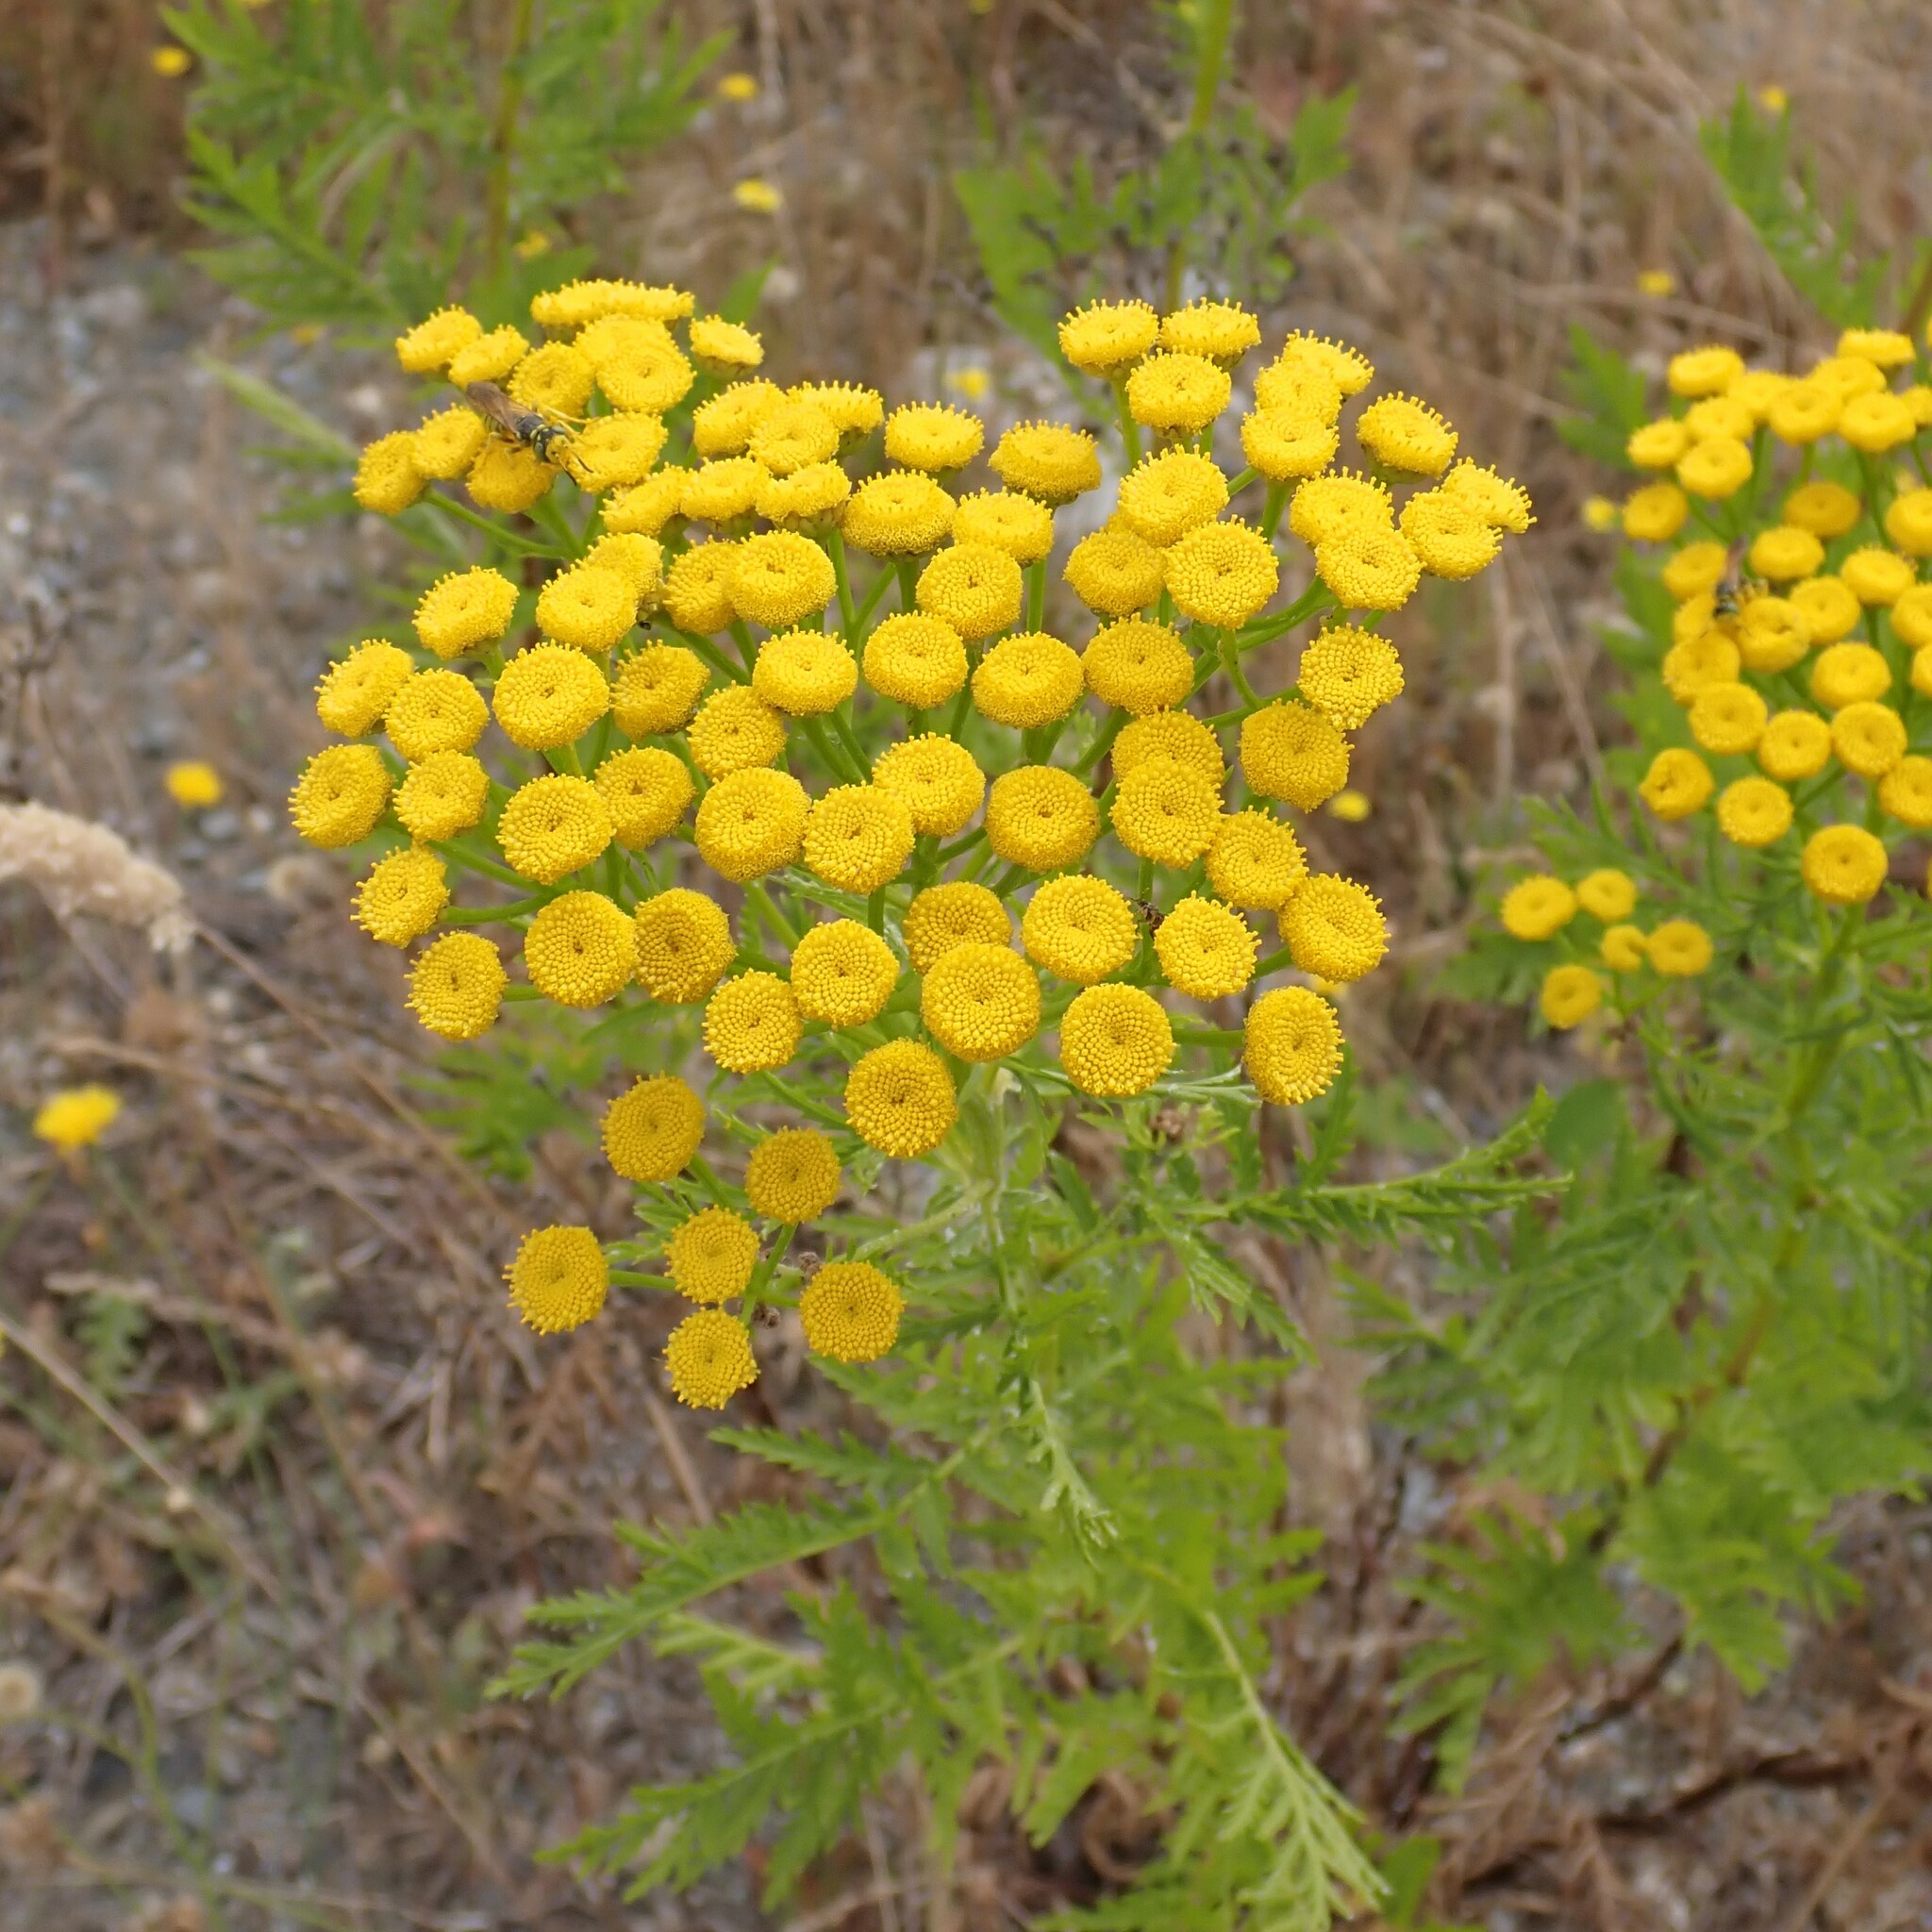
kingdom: Plantae
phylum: Tracheophyta
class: Magnoliopsida
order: Asterales
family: Asteraceae
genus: Tanacetum
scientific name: Tanacetum vulgare
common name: Common tansy
